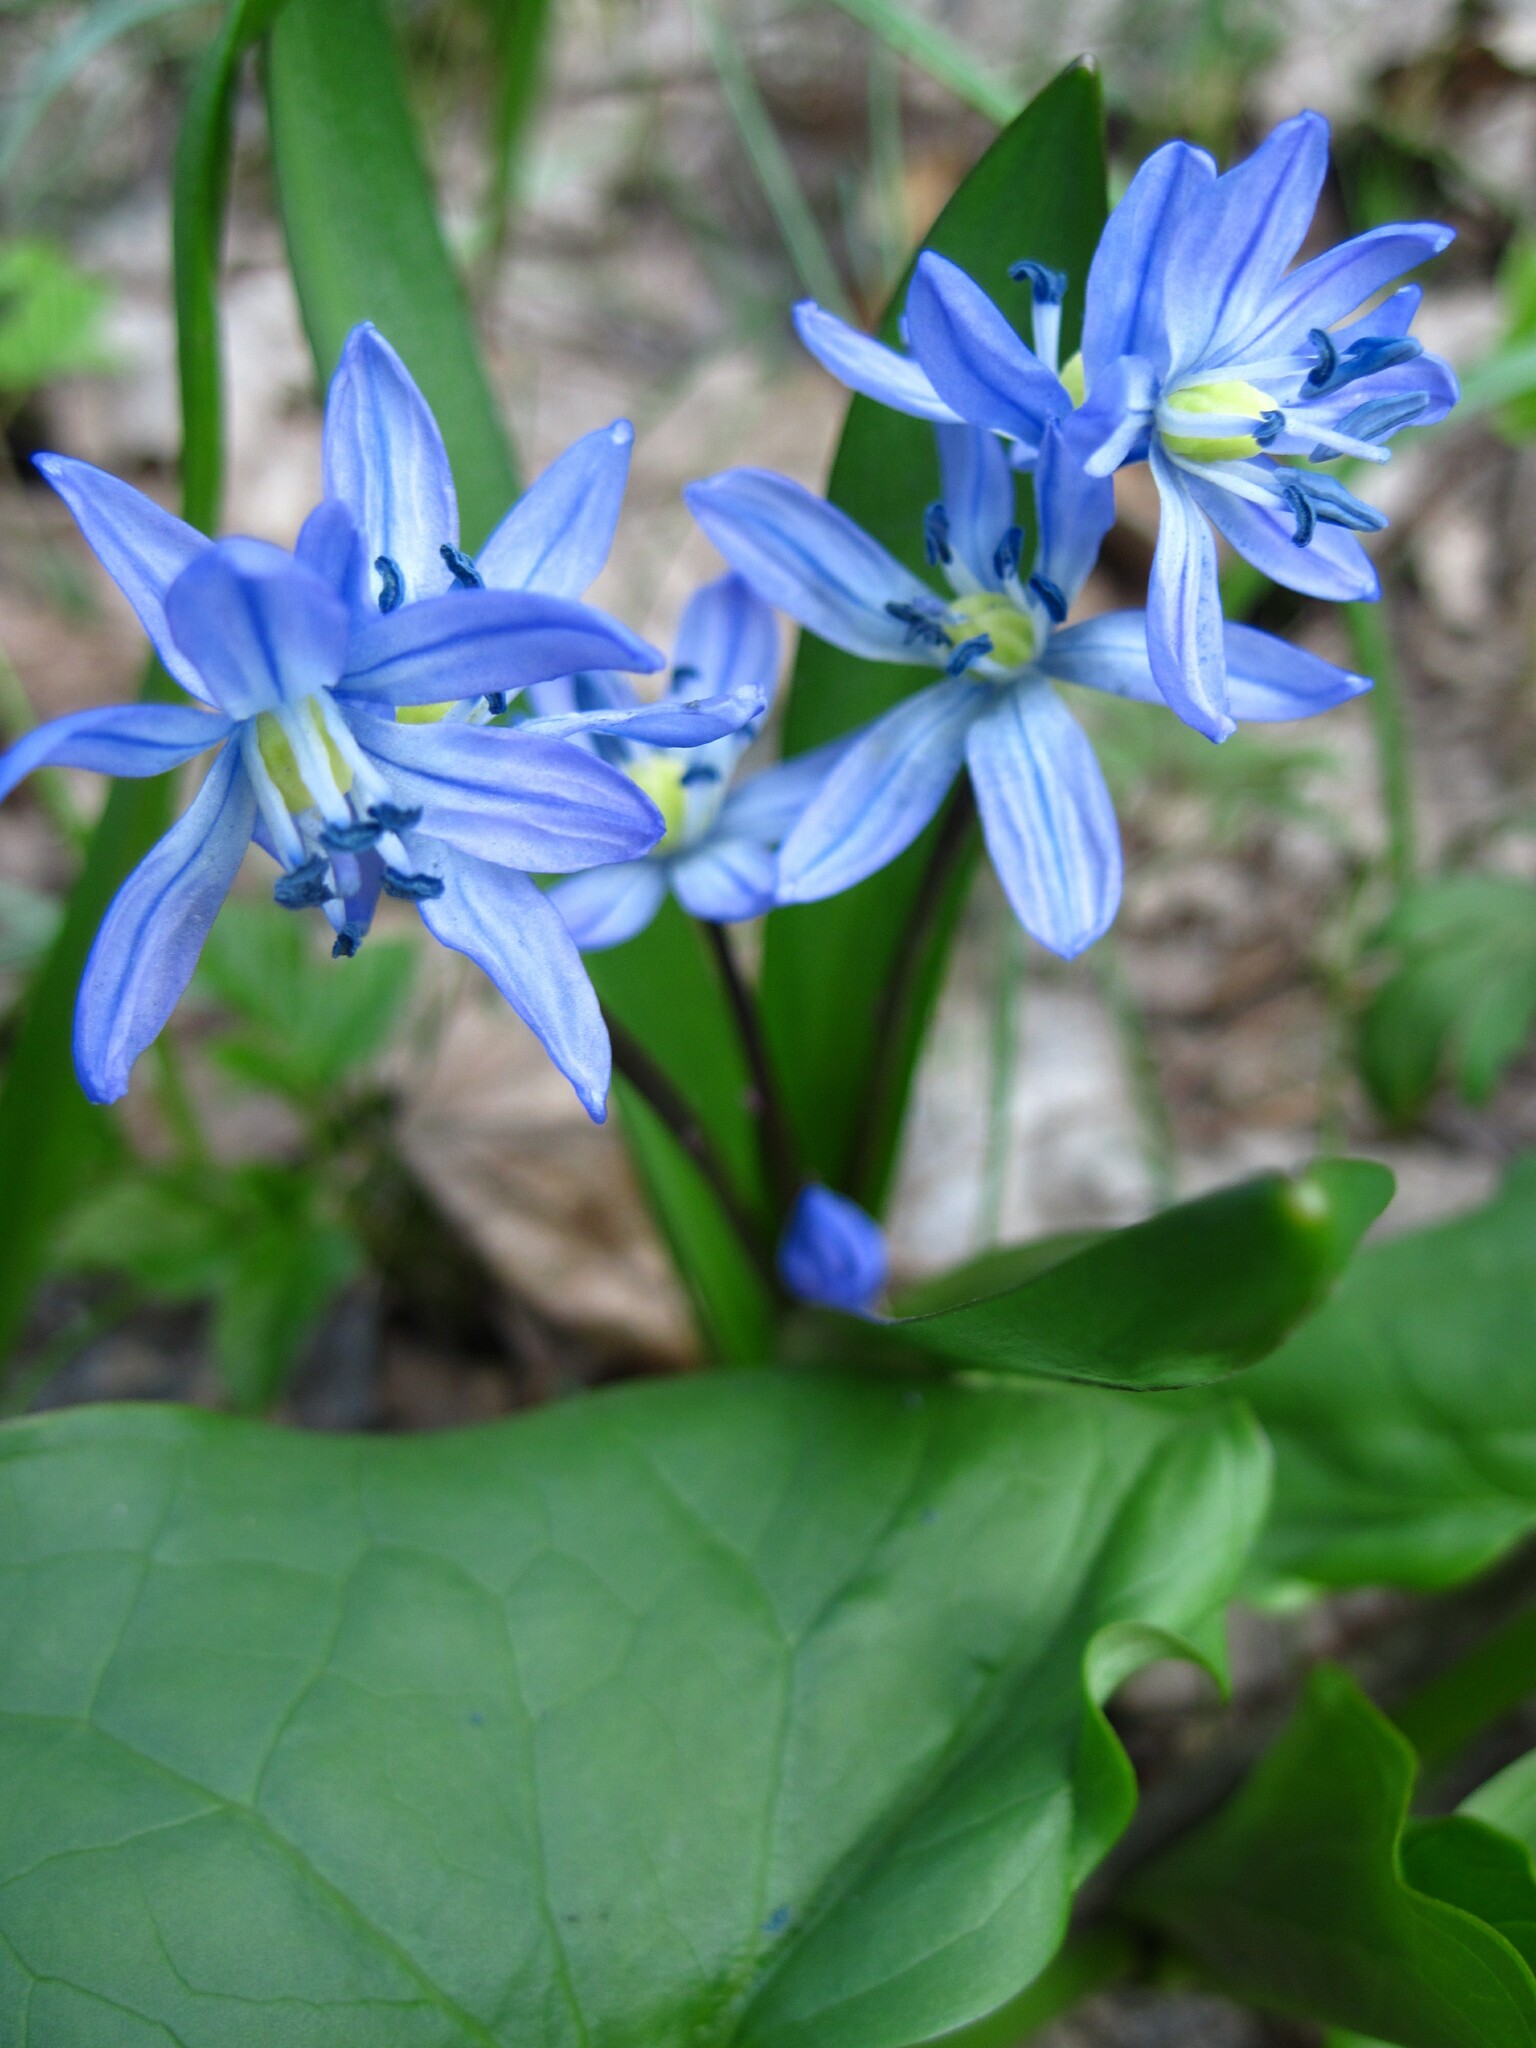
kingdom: Plantae
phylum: Tracheophyta
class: Liliopsida
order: Asparagales
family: Asparagaceae
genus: Scilla
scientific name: Scilla siberica
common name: Siberian squill
